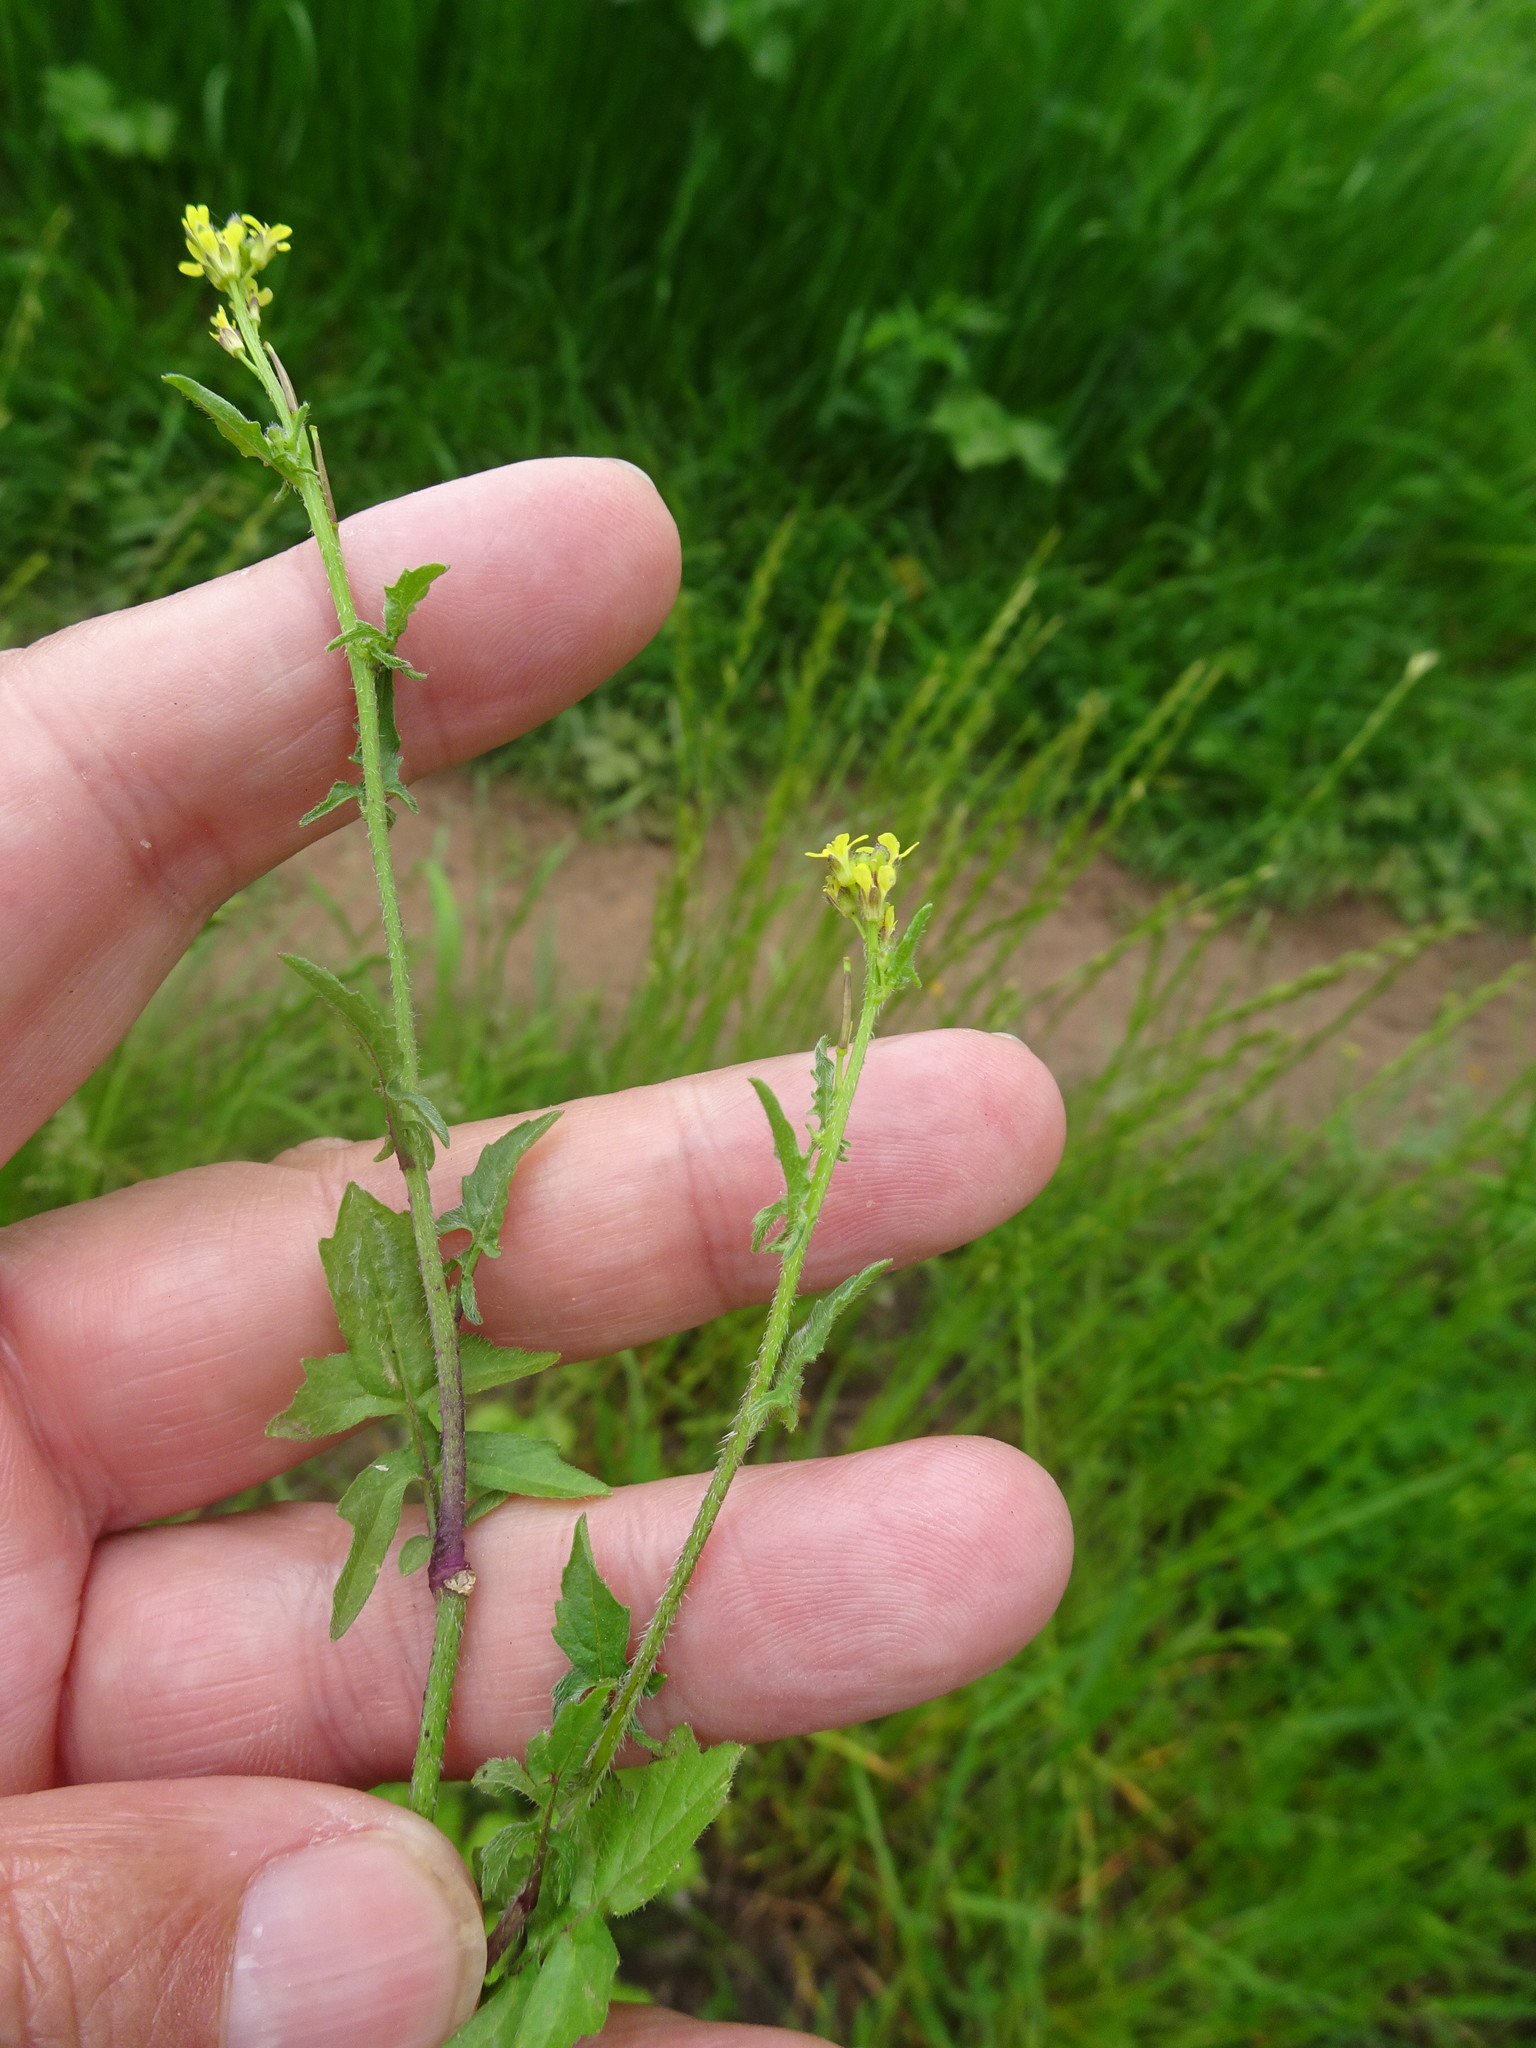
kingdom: Plantae
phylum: Tracheophyta
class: Magnoliopsida
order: Brassicales
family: Brassicaceae
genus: Sisymbrium
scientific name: Sisymbrium officinale
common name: Hedge mustard
